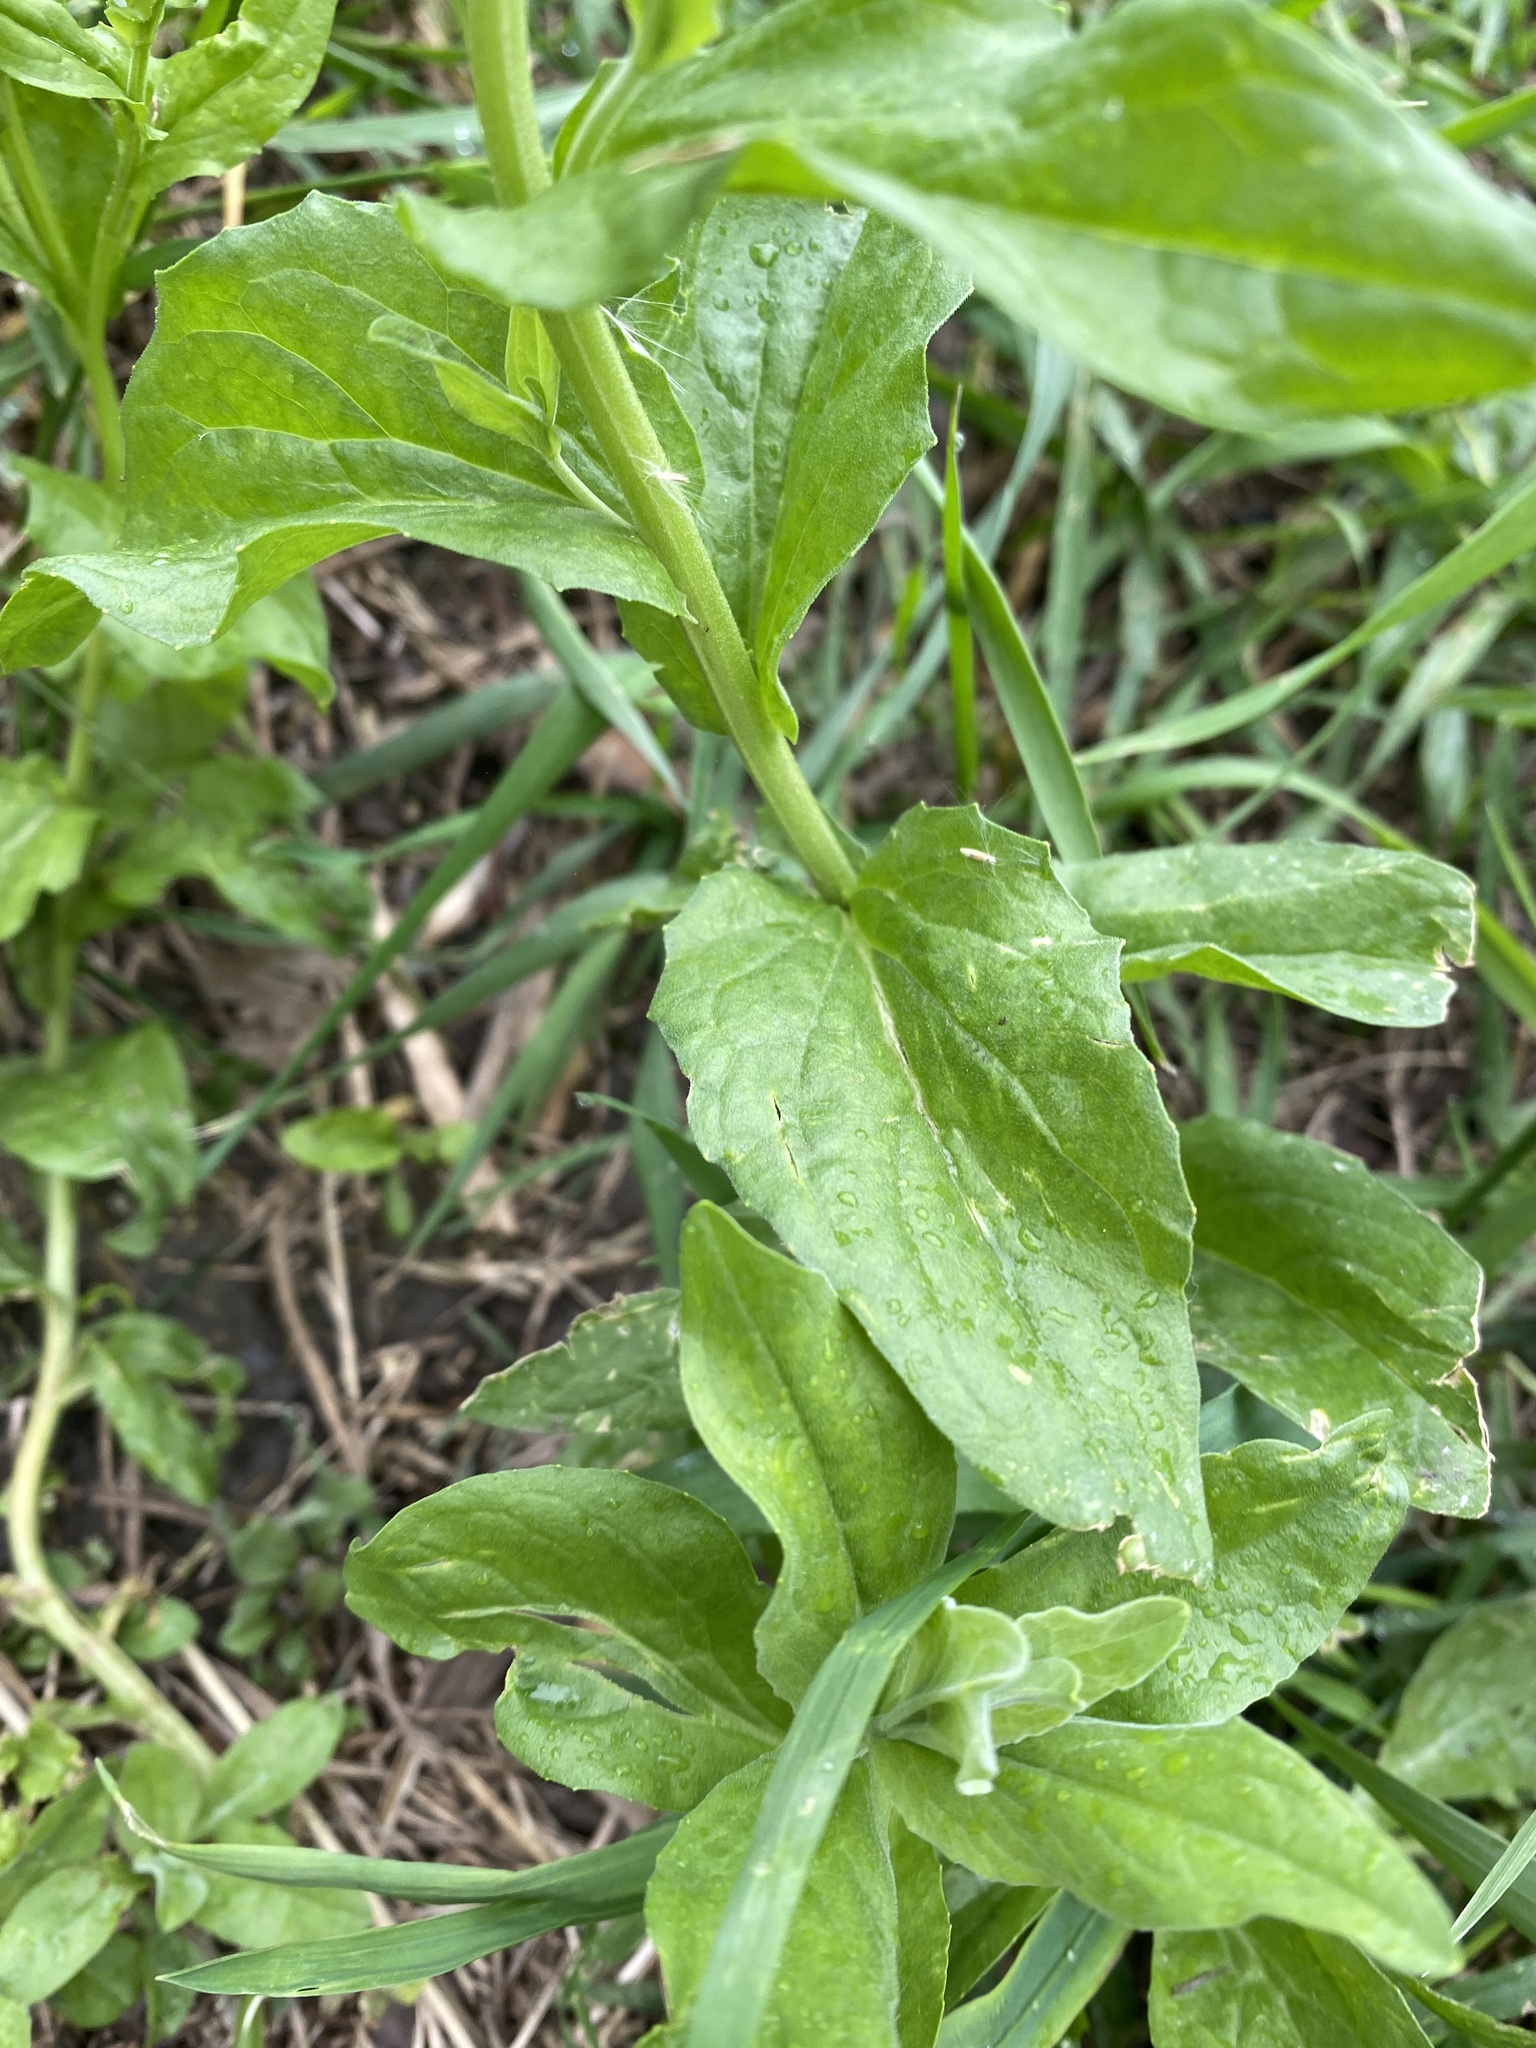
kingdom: Plantae
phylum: Tracheophyta
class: Magnoliopsida
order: Brassicales
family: Brassicaceae
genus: Lepidium
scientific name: Lepidium draba
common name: Hoary cress
